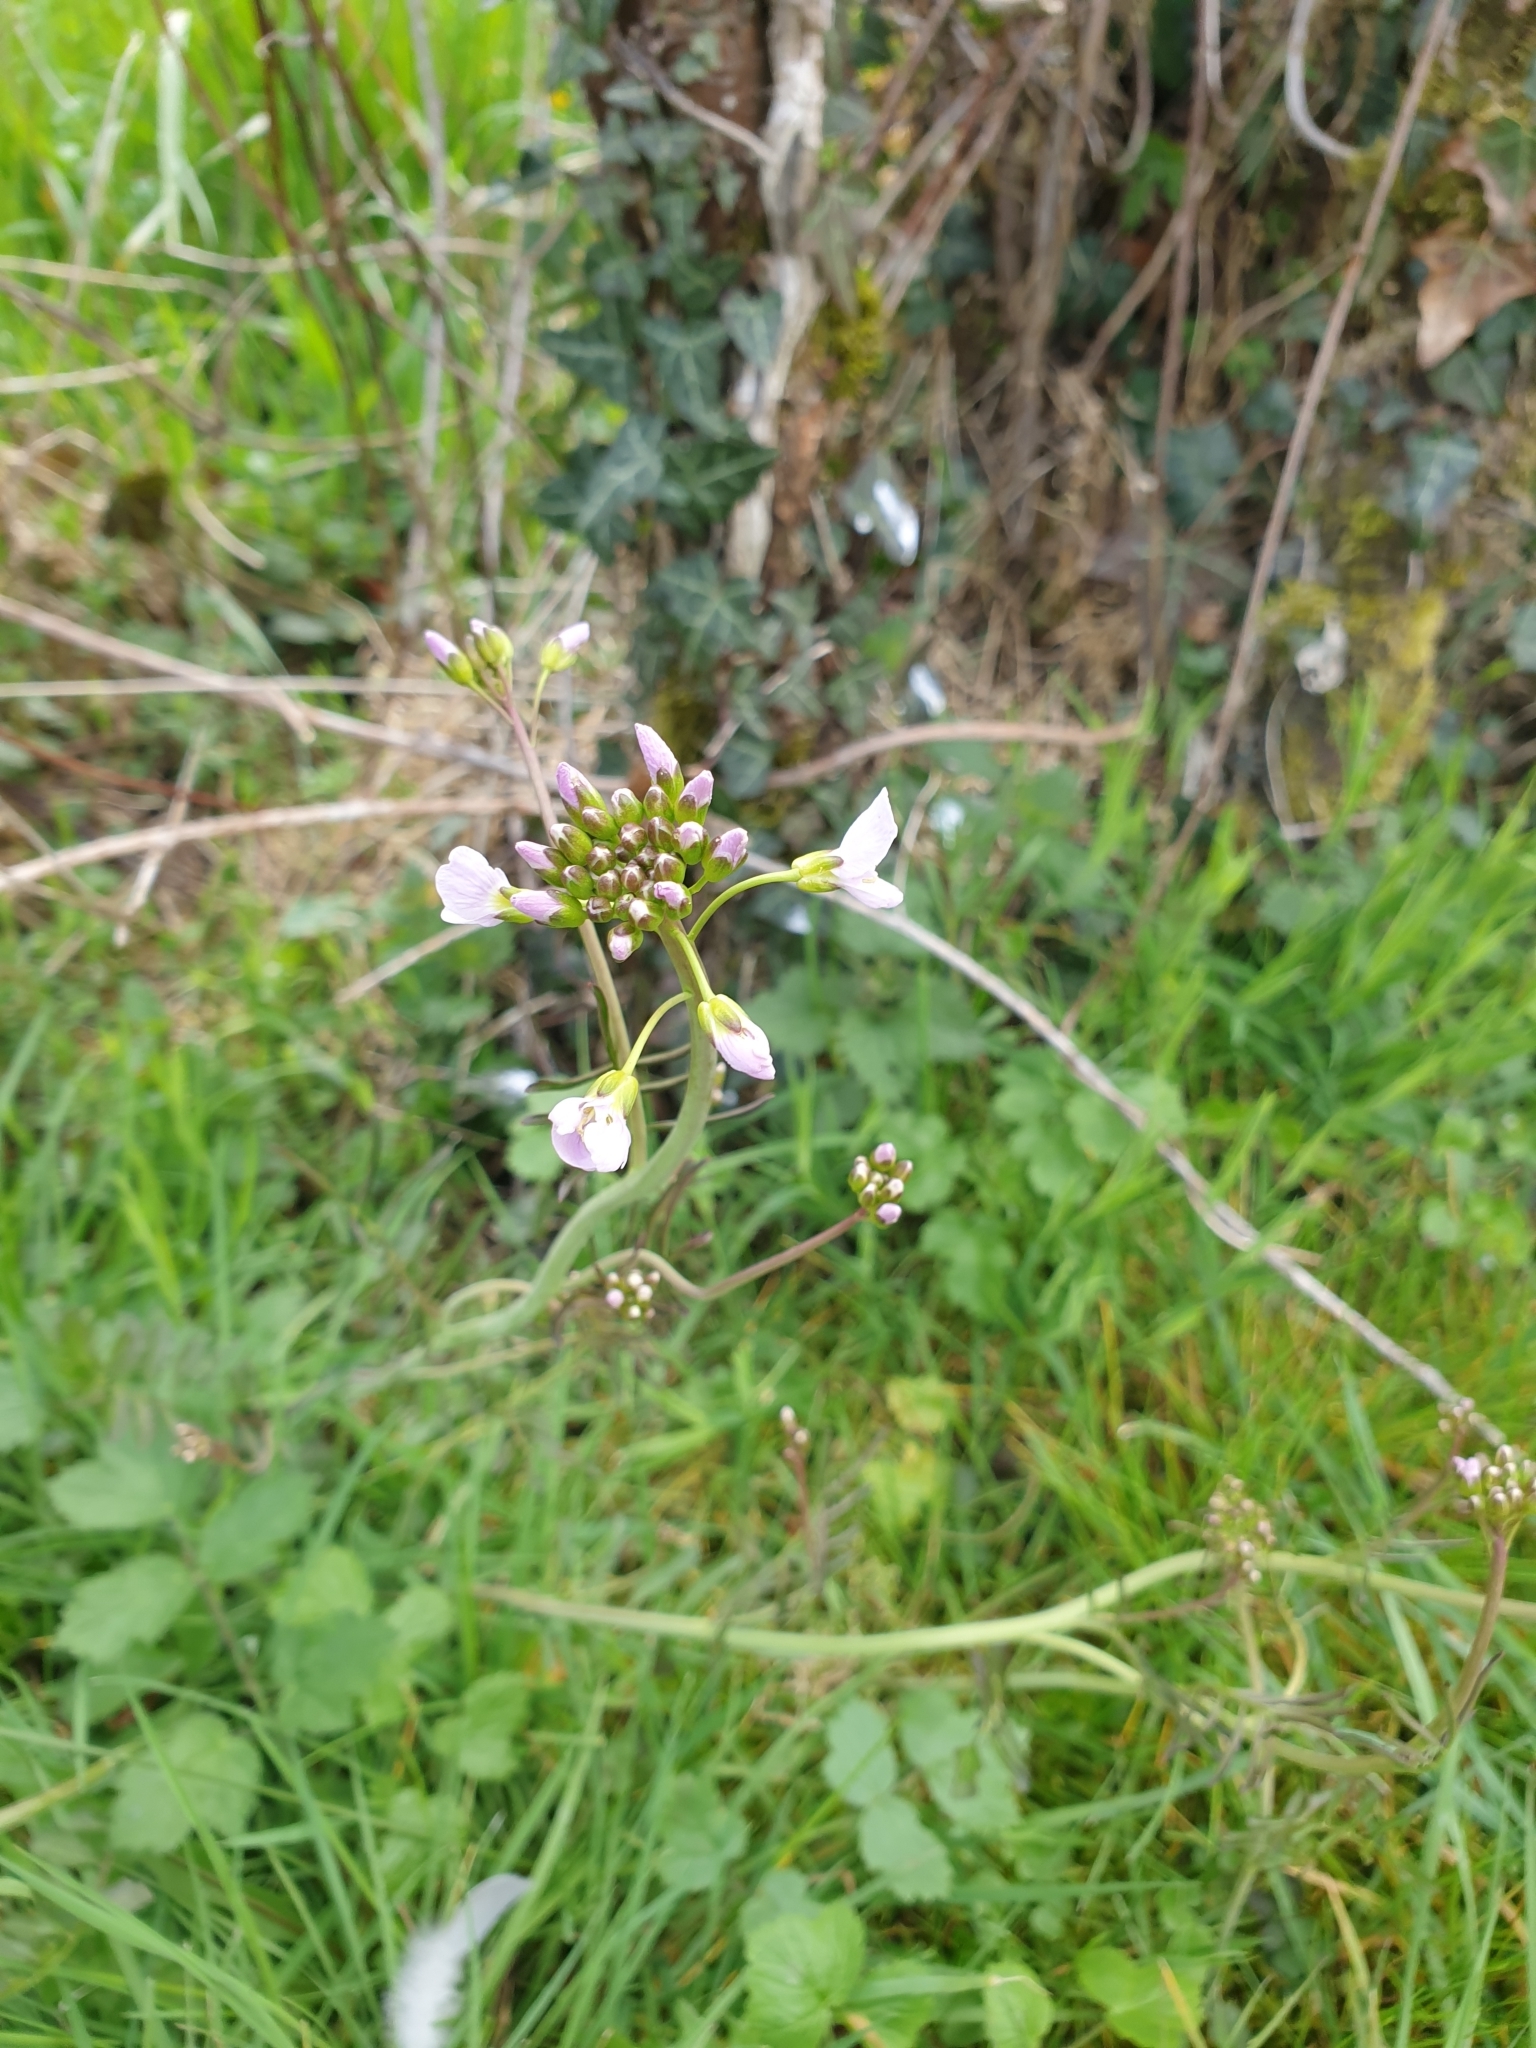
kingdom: Plantae
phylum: Tracheophyta
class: Magnoliopsida
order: Brassicales
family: Brassicaceae
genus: Cardamine
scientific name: Cardamine pratensis
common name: Cuckoo flower
